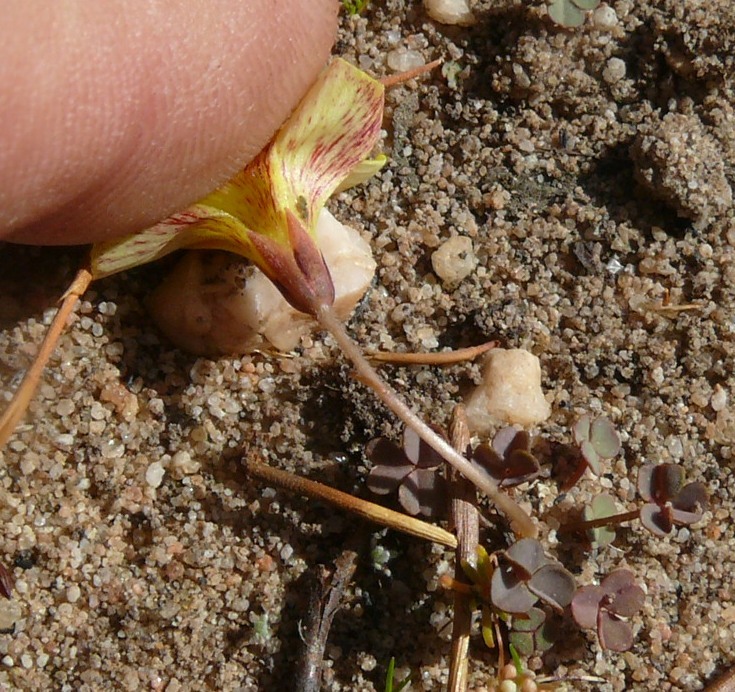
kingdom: Plantae
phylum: Tracheophyta
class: Magnoliopsida
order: Oxalidales
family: Oxalidaceae
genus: Oxalis
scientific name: Oxalis obtusa
